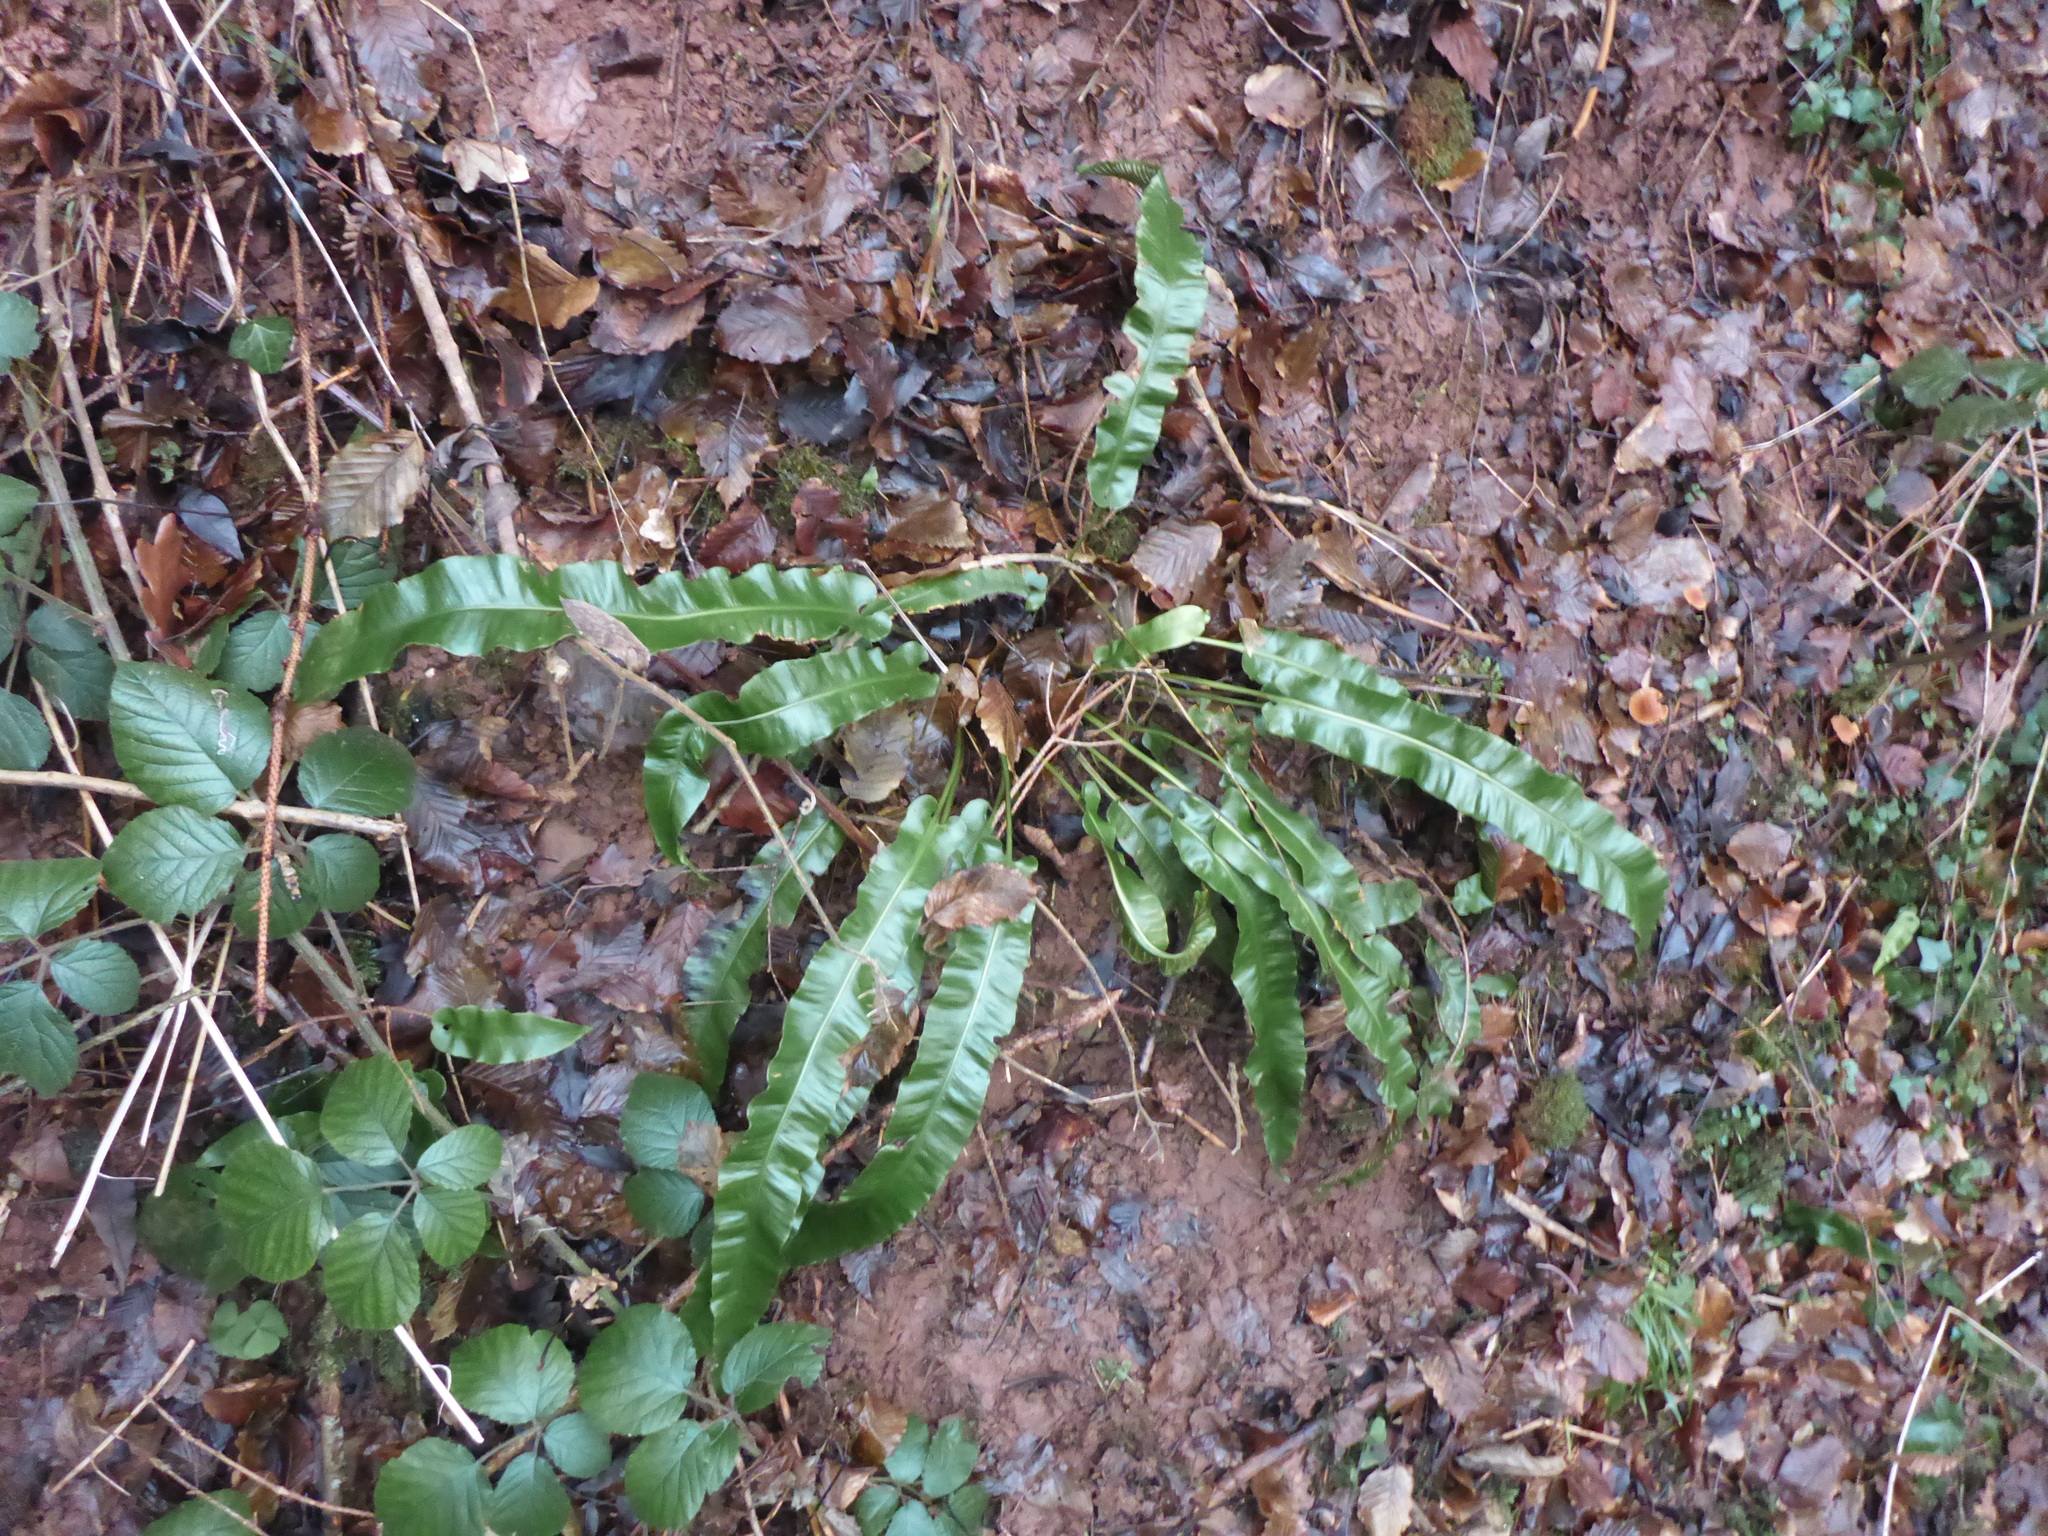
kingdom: Plantae
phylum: Tracheophyta
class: Polypodiopsida
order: Polypodiales
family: Aspleniaceae
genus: Asplenium
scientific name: Asplenium scolopendrium
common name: Hart's-tongue fern
